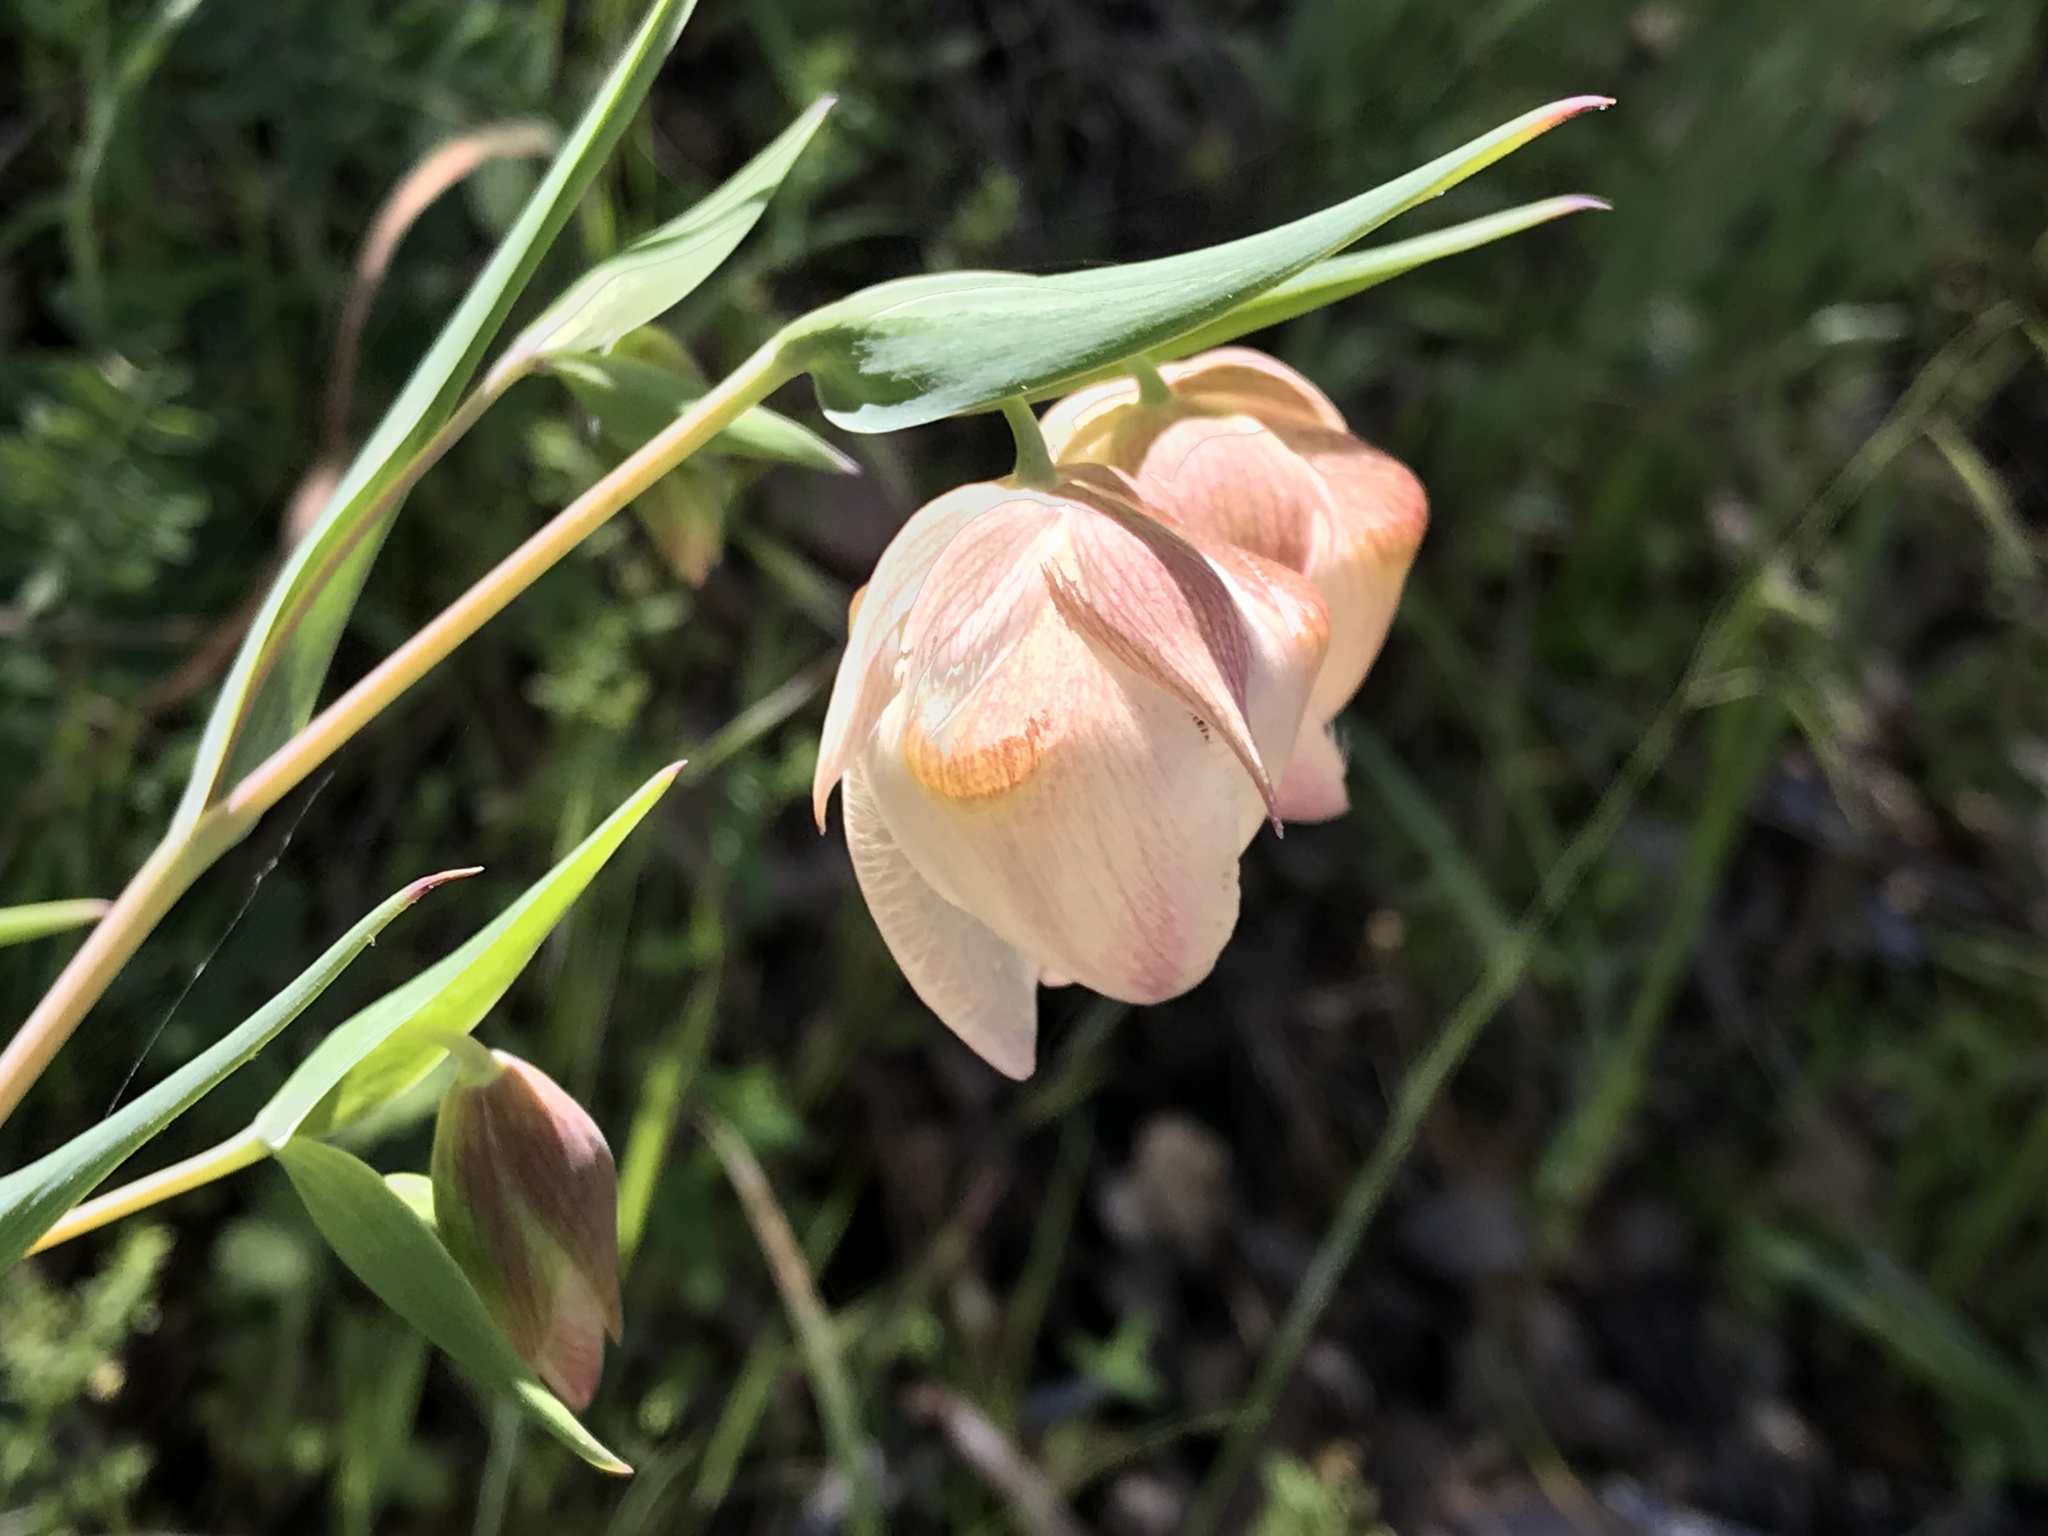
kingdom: Plantae
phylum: Tracheophyta
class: Liliopsida
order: Liliales
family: Liliaceae
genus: Calochortus
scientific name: Calochortus albus
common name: Fairy-lantern
